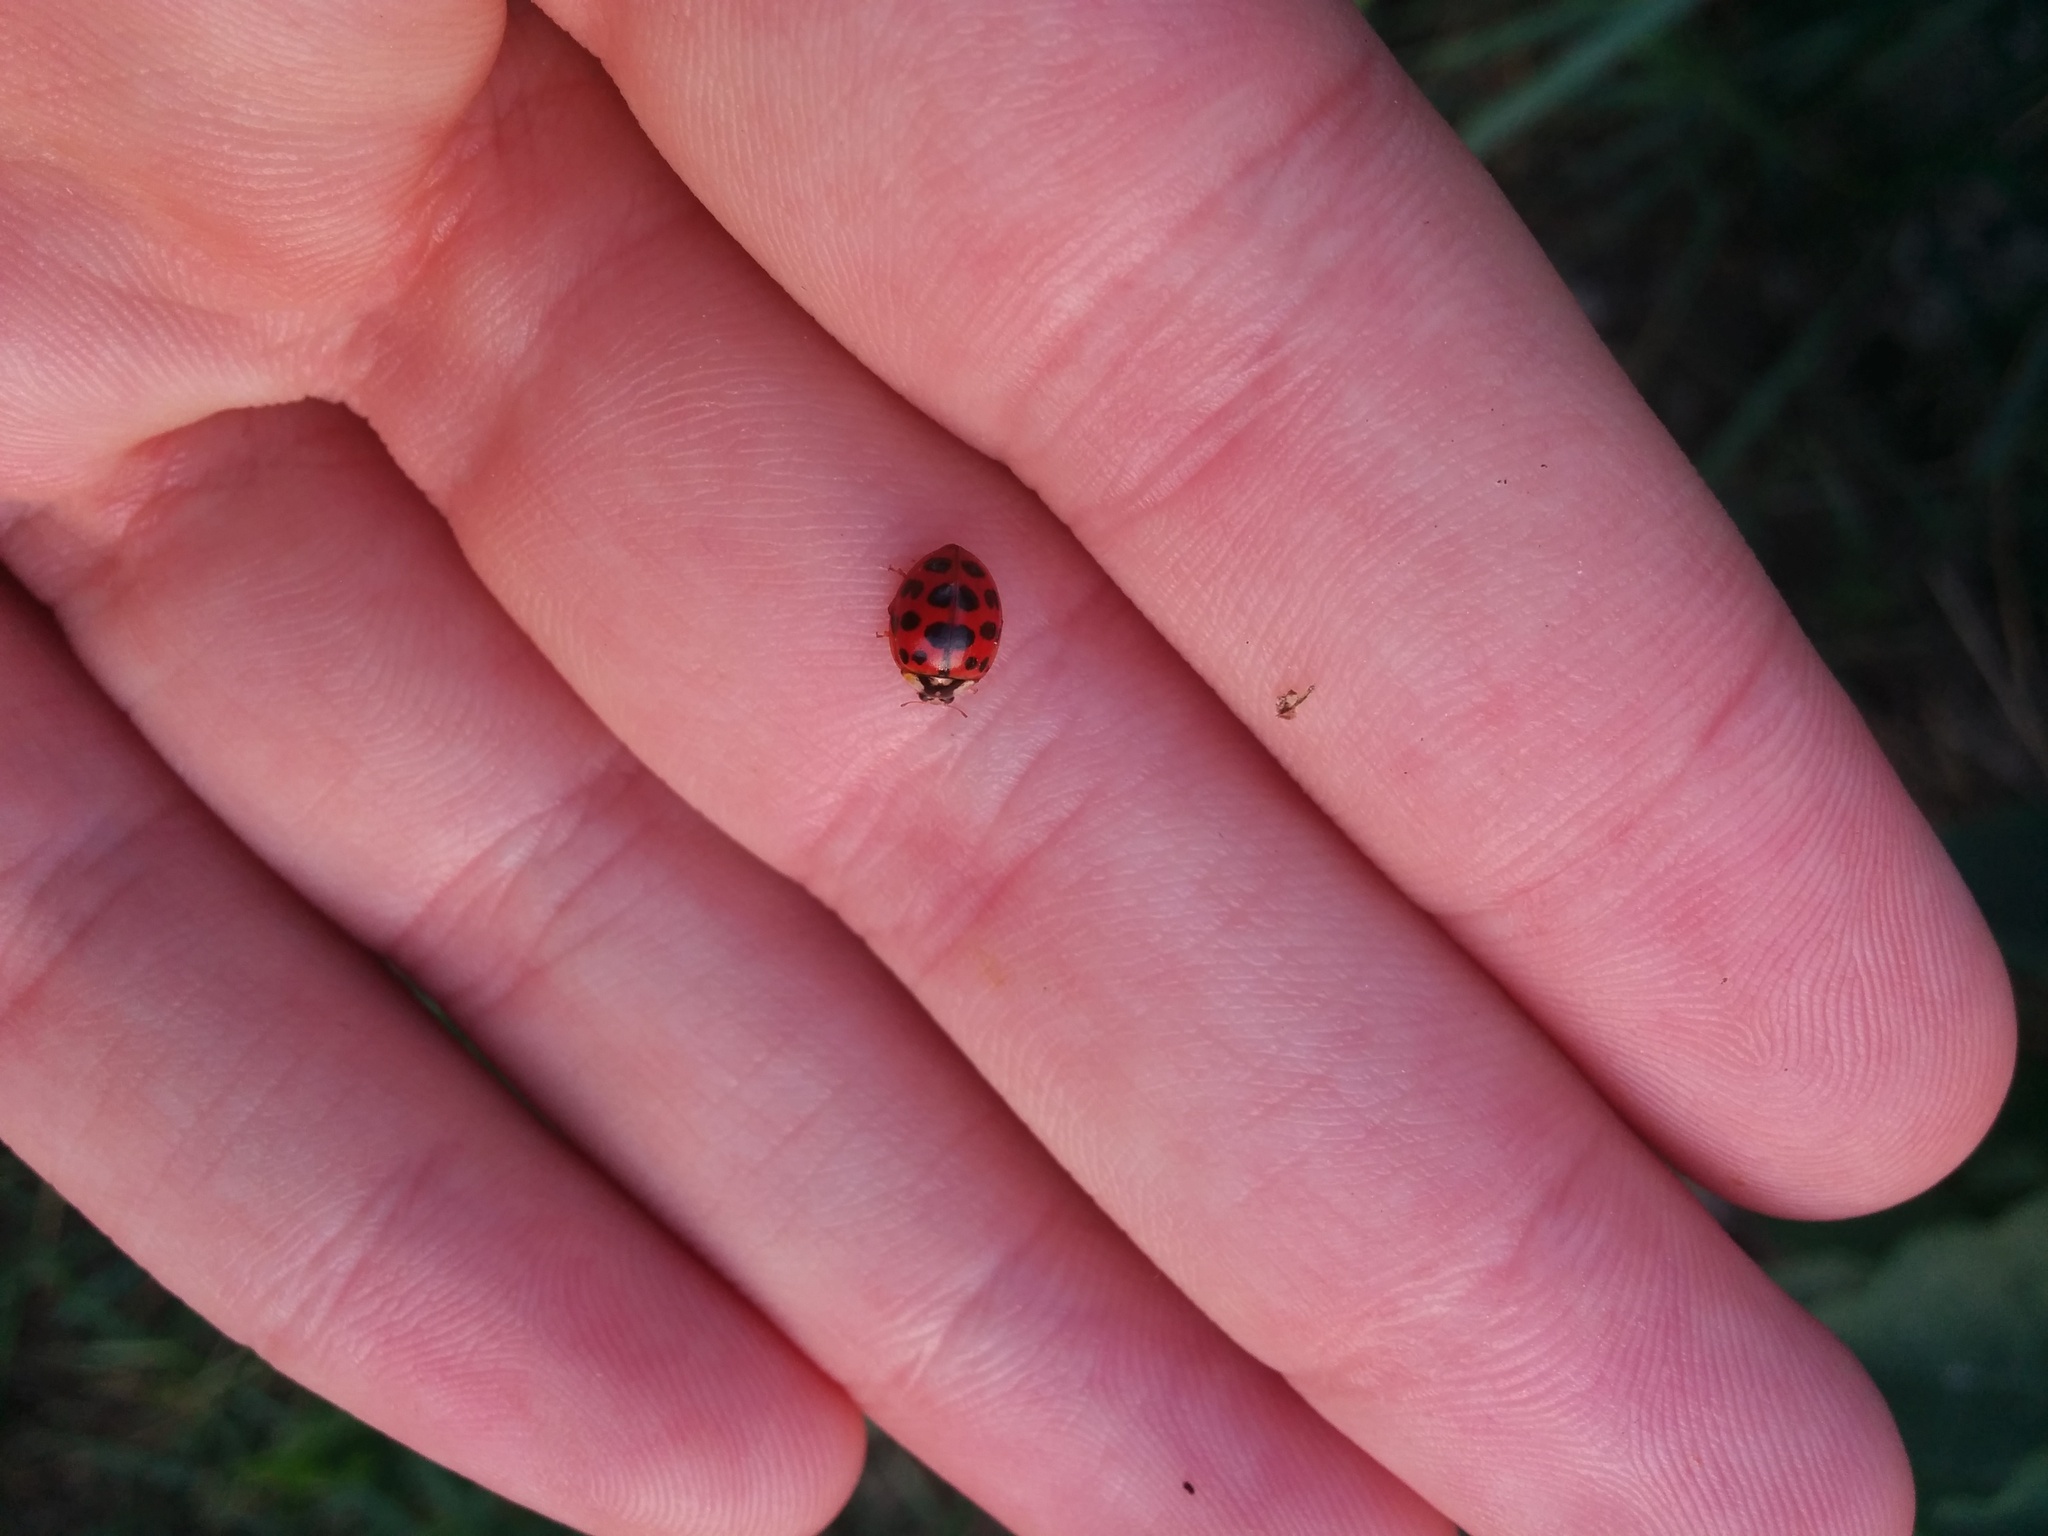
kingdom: Animalia
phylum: Arthropoda
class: Insecta
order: Coleoptera
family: Coccinellidae
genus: Harmonia
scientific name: Harmonia axyridis
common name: Harlequin ladybird
